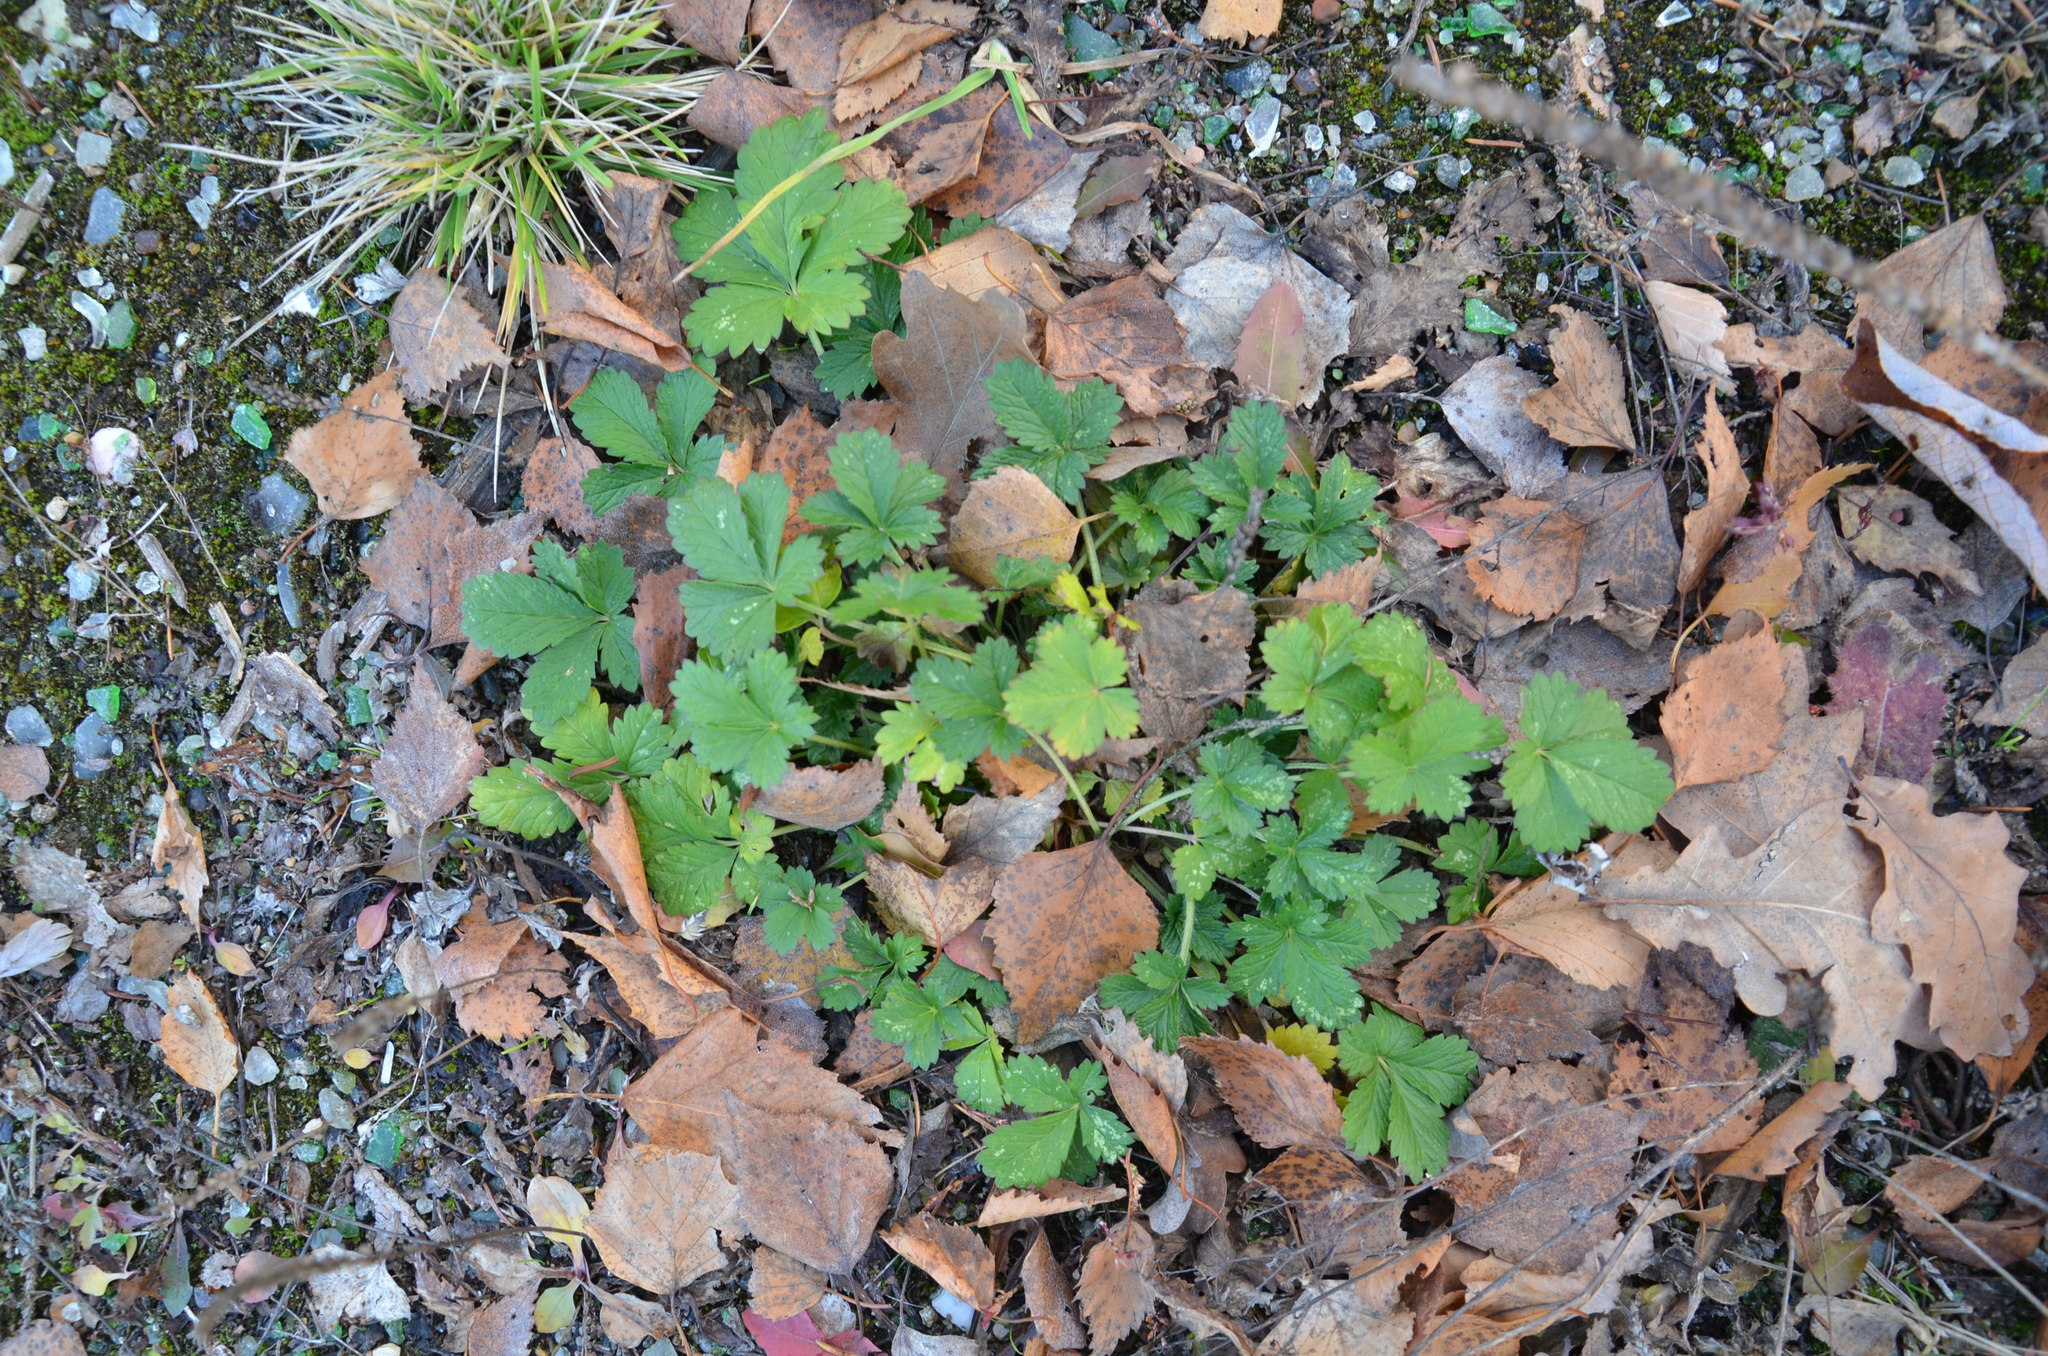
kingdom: Plantae
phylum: Tracheophyta
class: Magnoliopsida
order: Rosales
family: Rosaceae
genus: Potentilla
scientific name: Potentilla intermedia
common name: Downy cinquefoil
